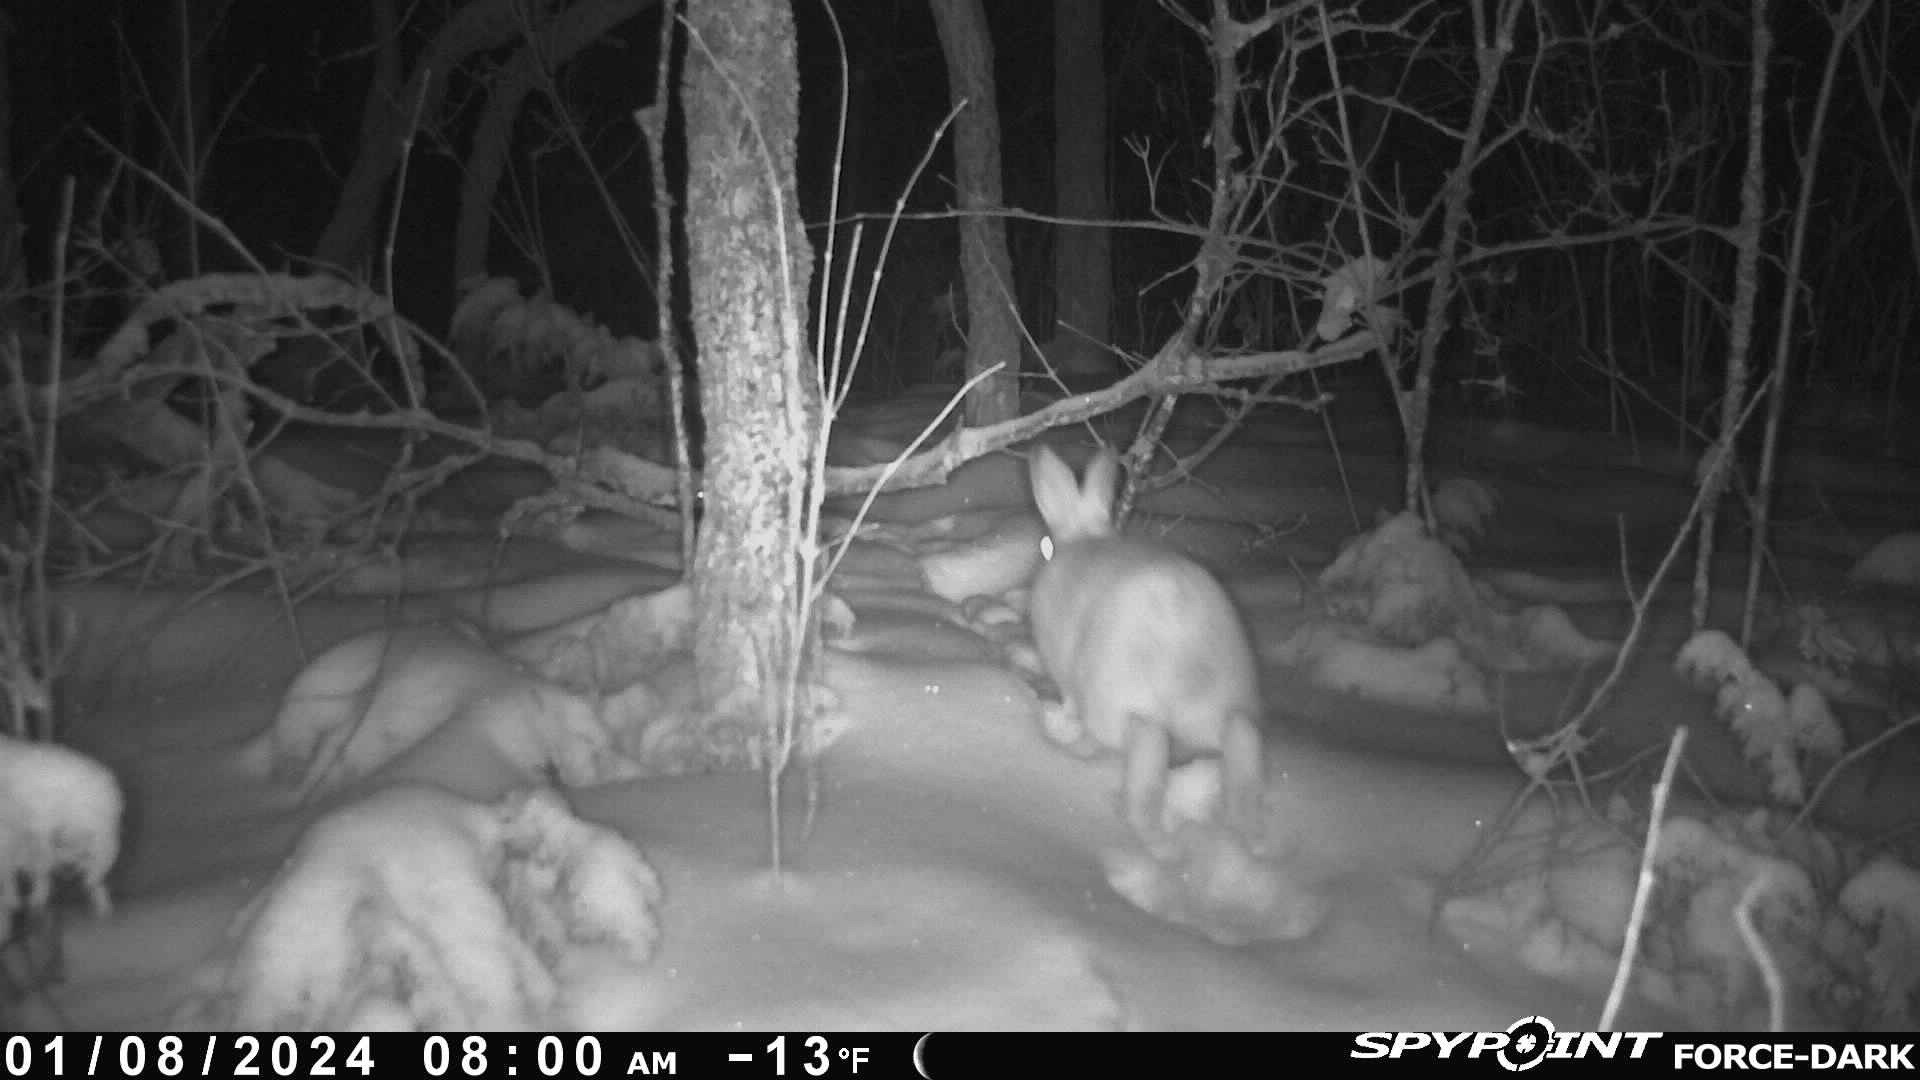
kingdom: Animalia
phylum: Chordata
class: Mammalia
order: Lagomorpha
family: Leporidae
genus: Lepus
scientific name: Lepus americanus
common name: Snowshoe hare
